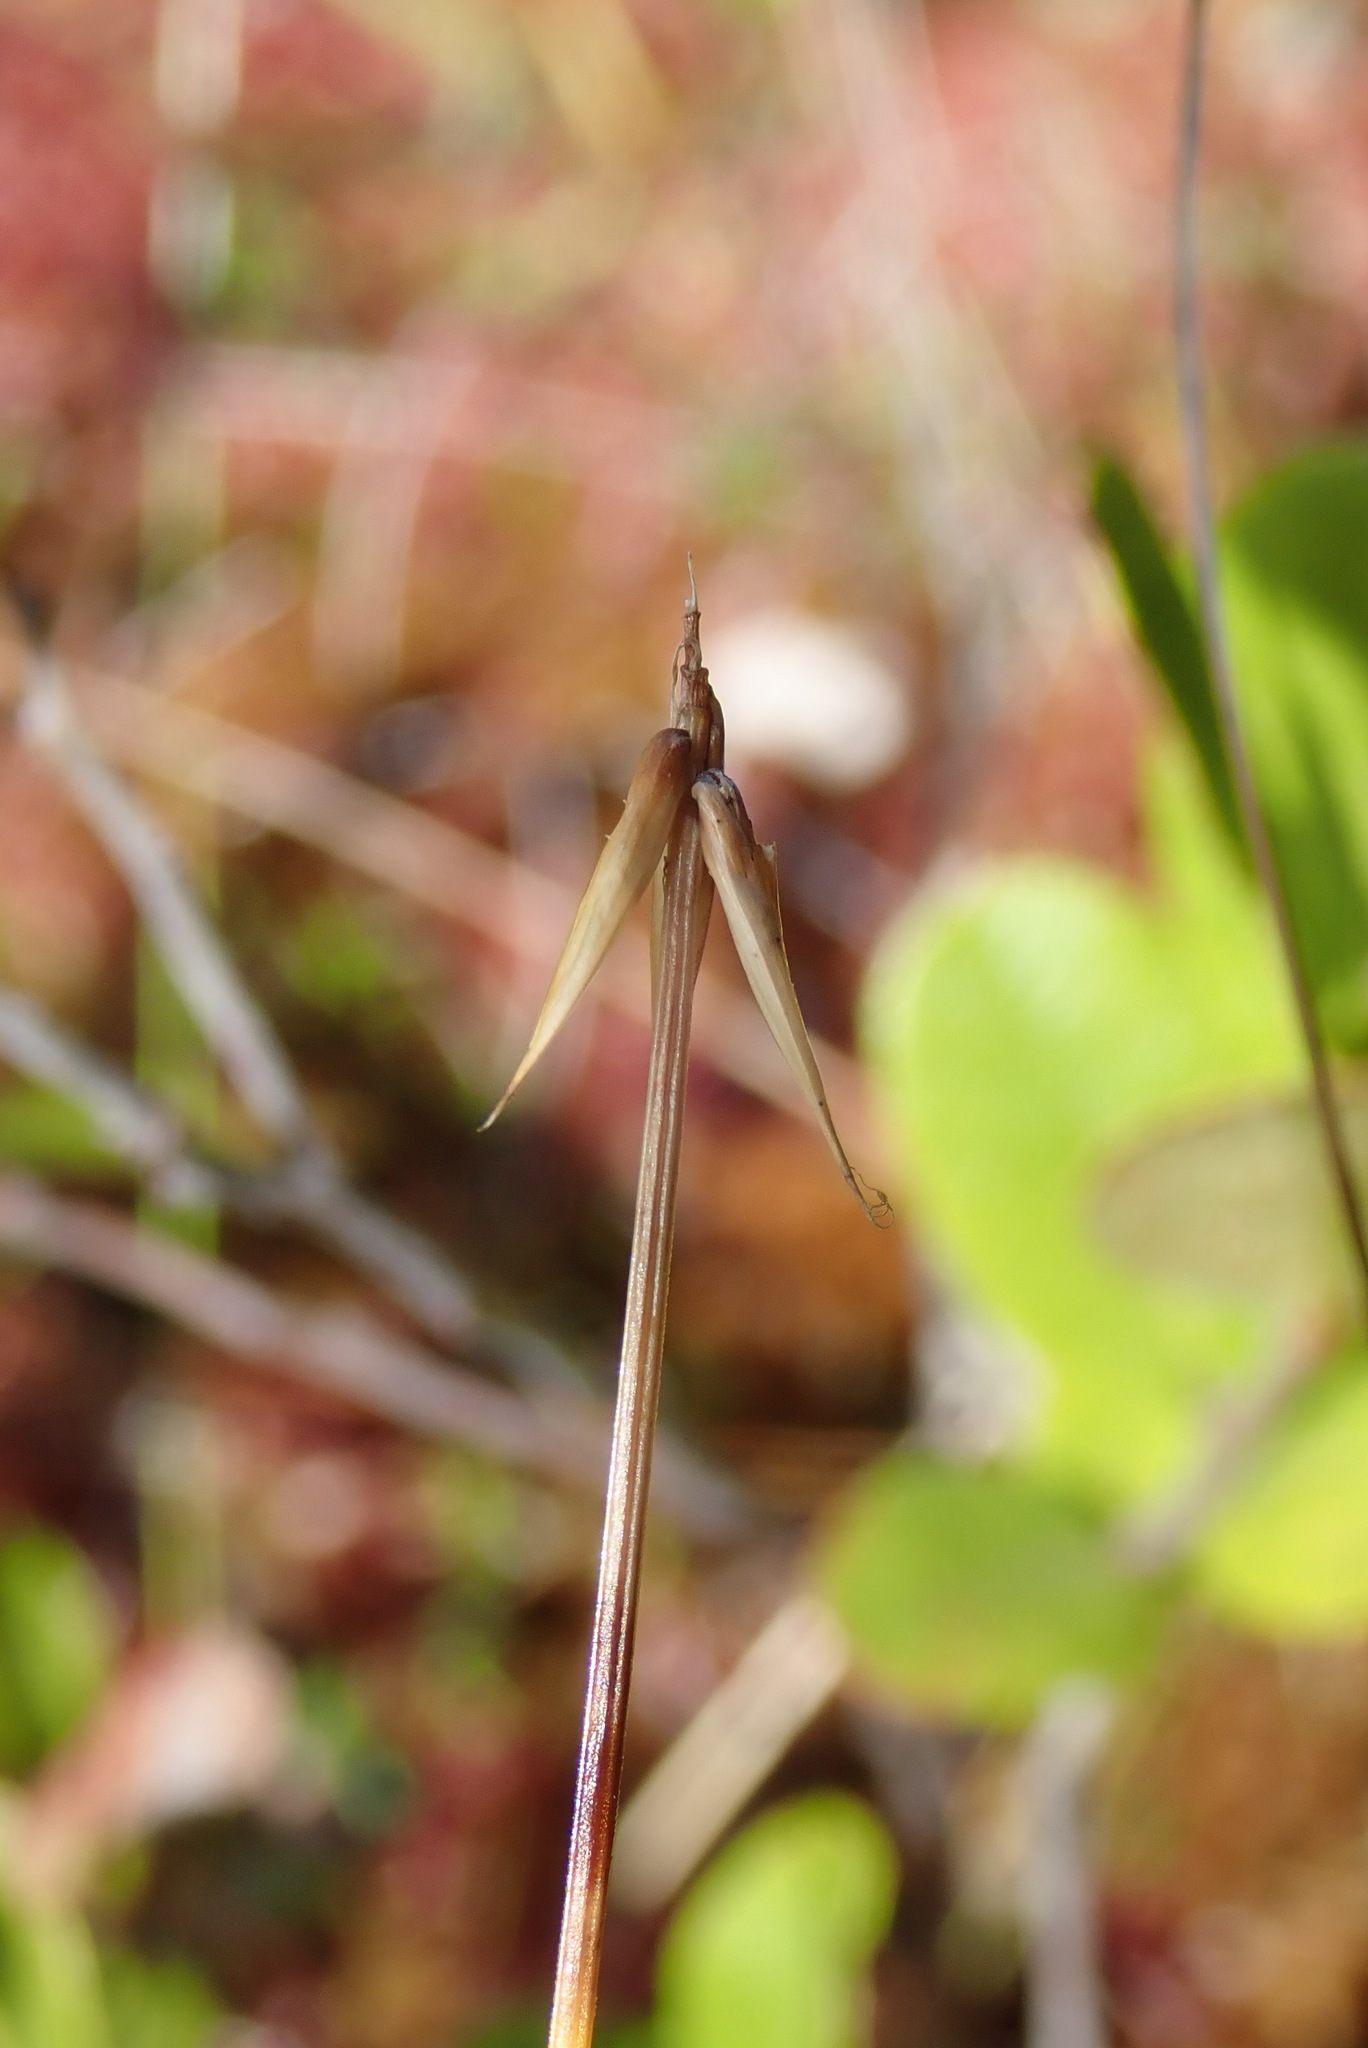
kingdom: Plantae
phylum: Tracheophyta
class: Liliopsida
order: Poales
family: Cyperaceae
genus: Carex
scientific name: Carex pauciflora
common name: Few-flowered sedge
